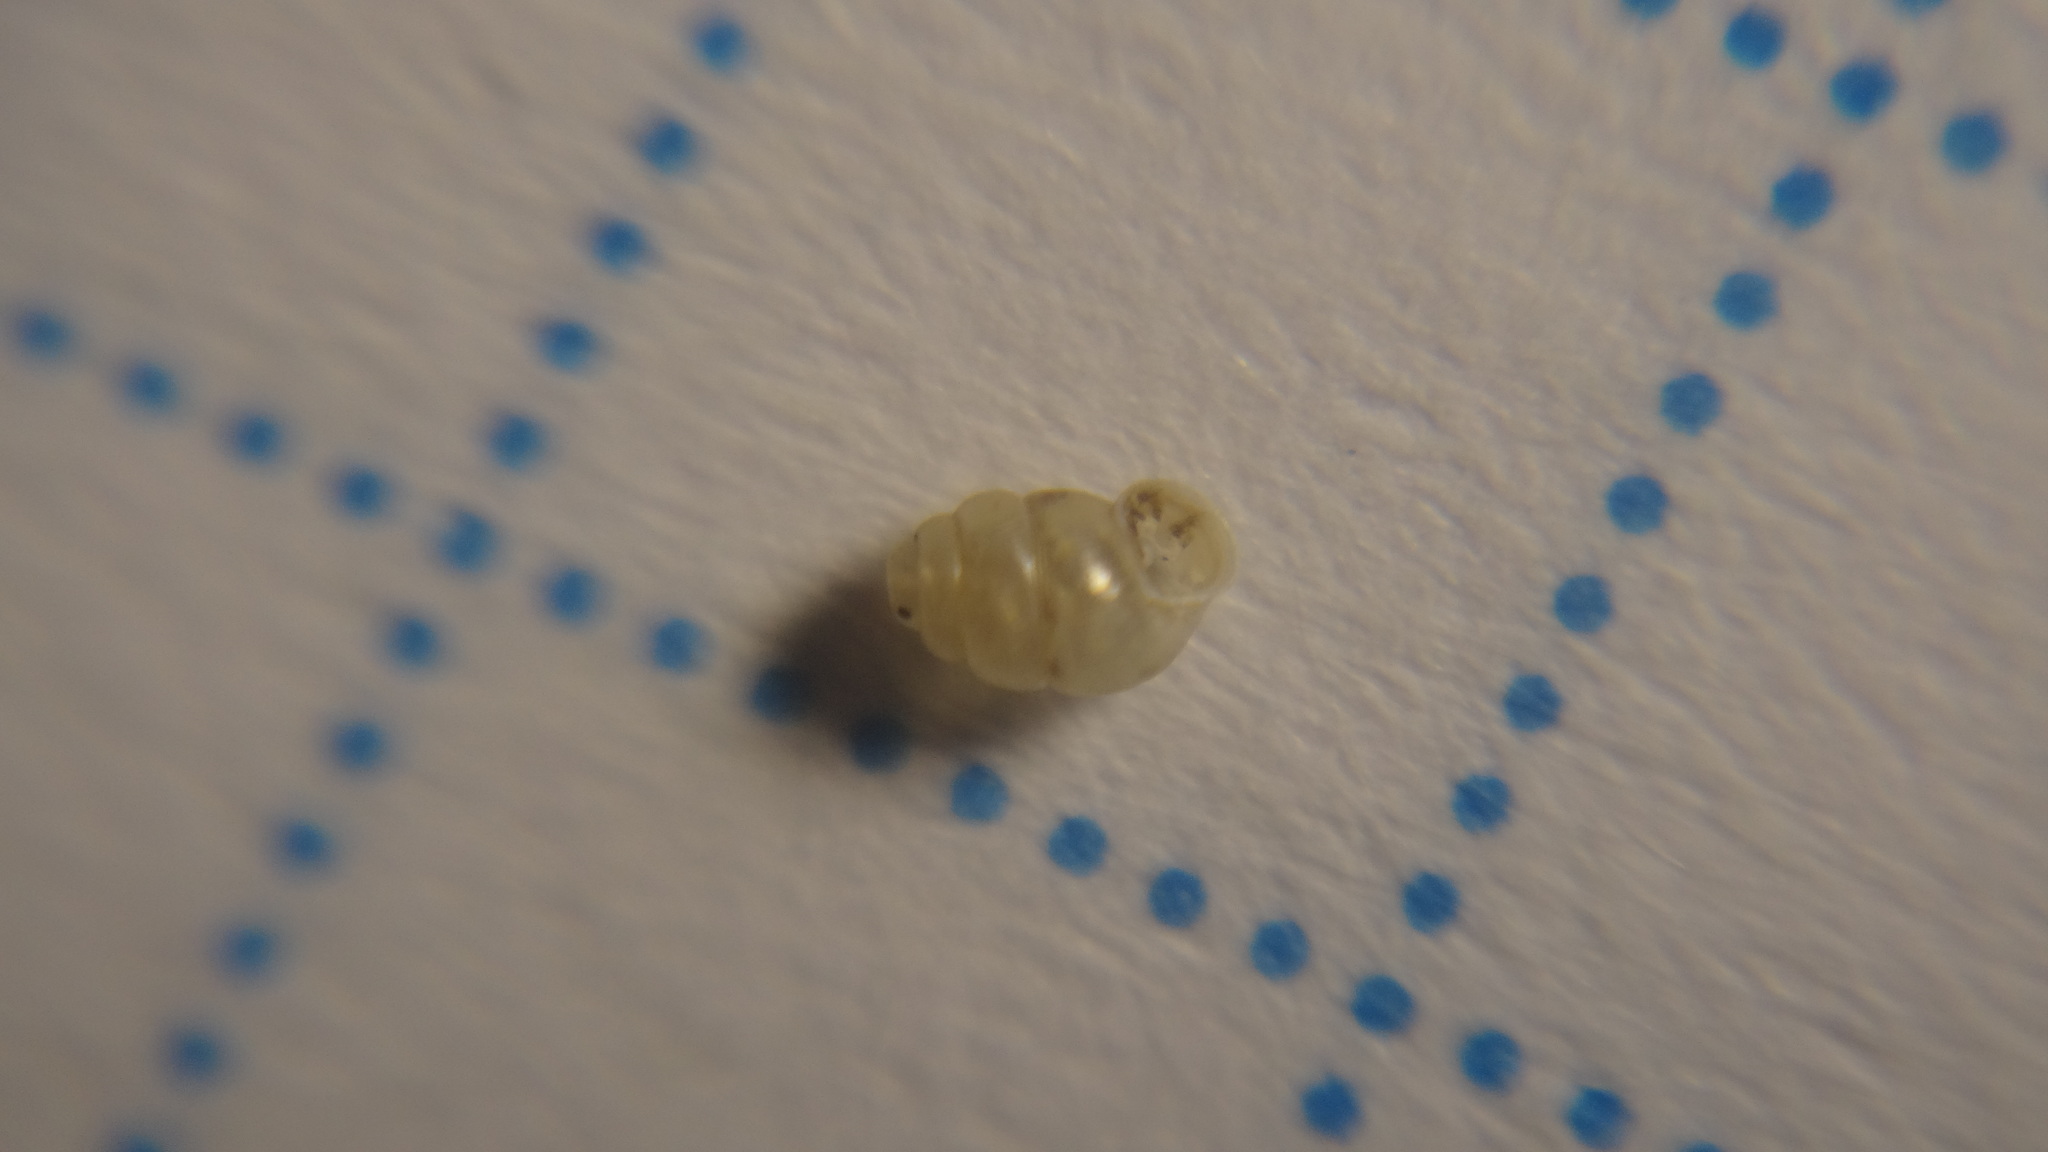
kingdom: Animalia
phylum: Mollusca
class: Gastropoda
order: Stylommatophora
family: Vertiginidae
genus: Vertigo
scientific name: Vertigo pygmaea
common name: Common whorl snail
